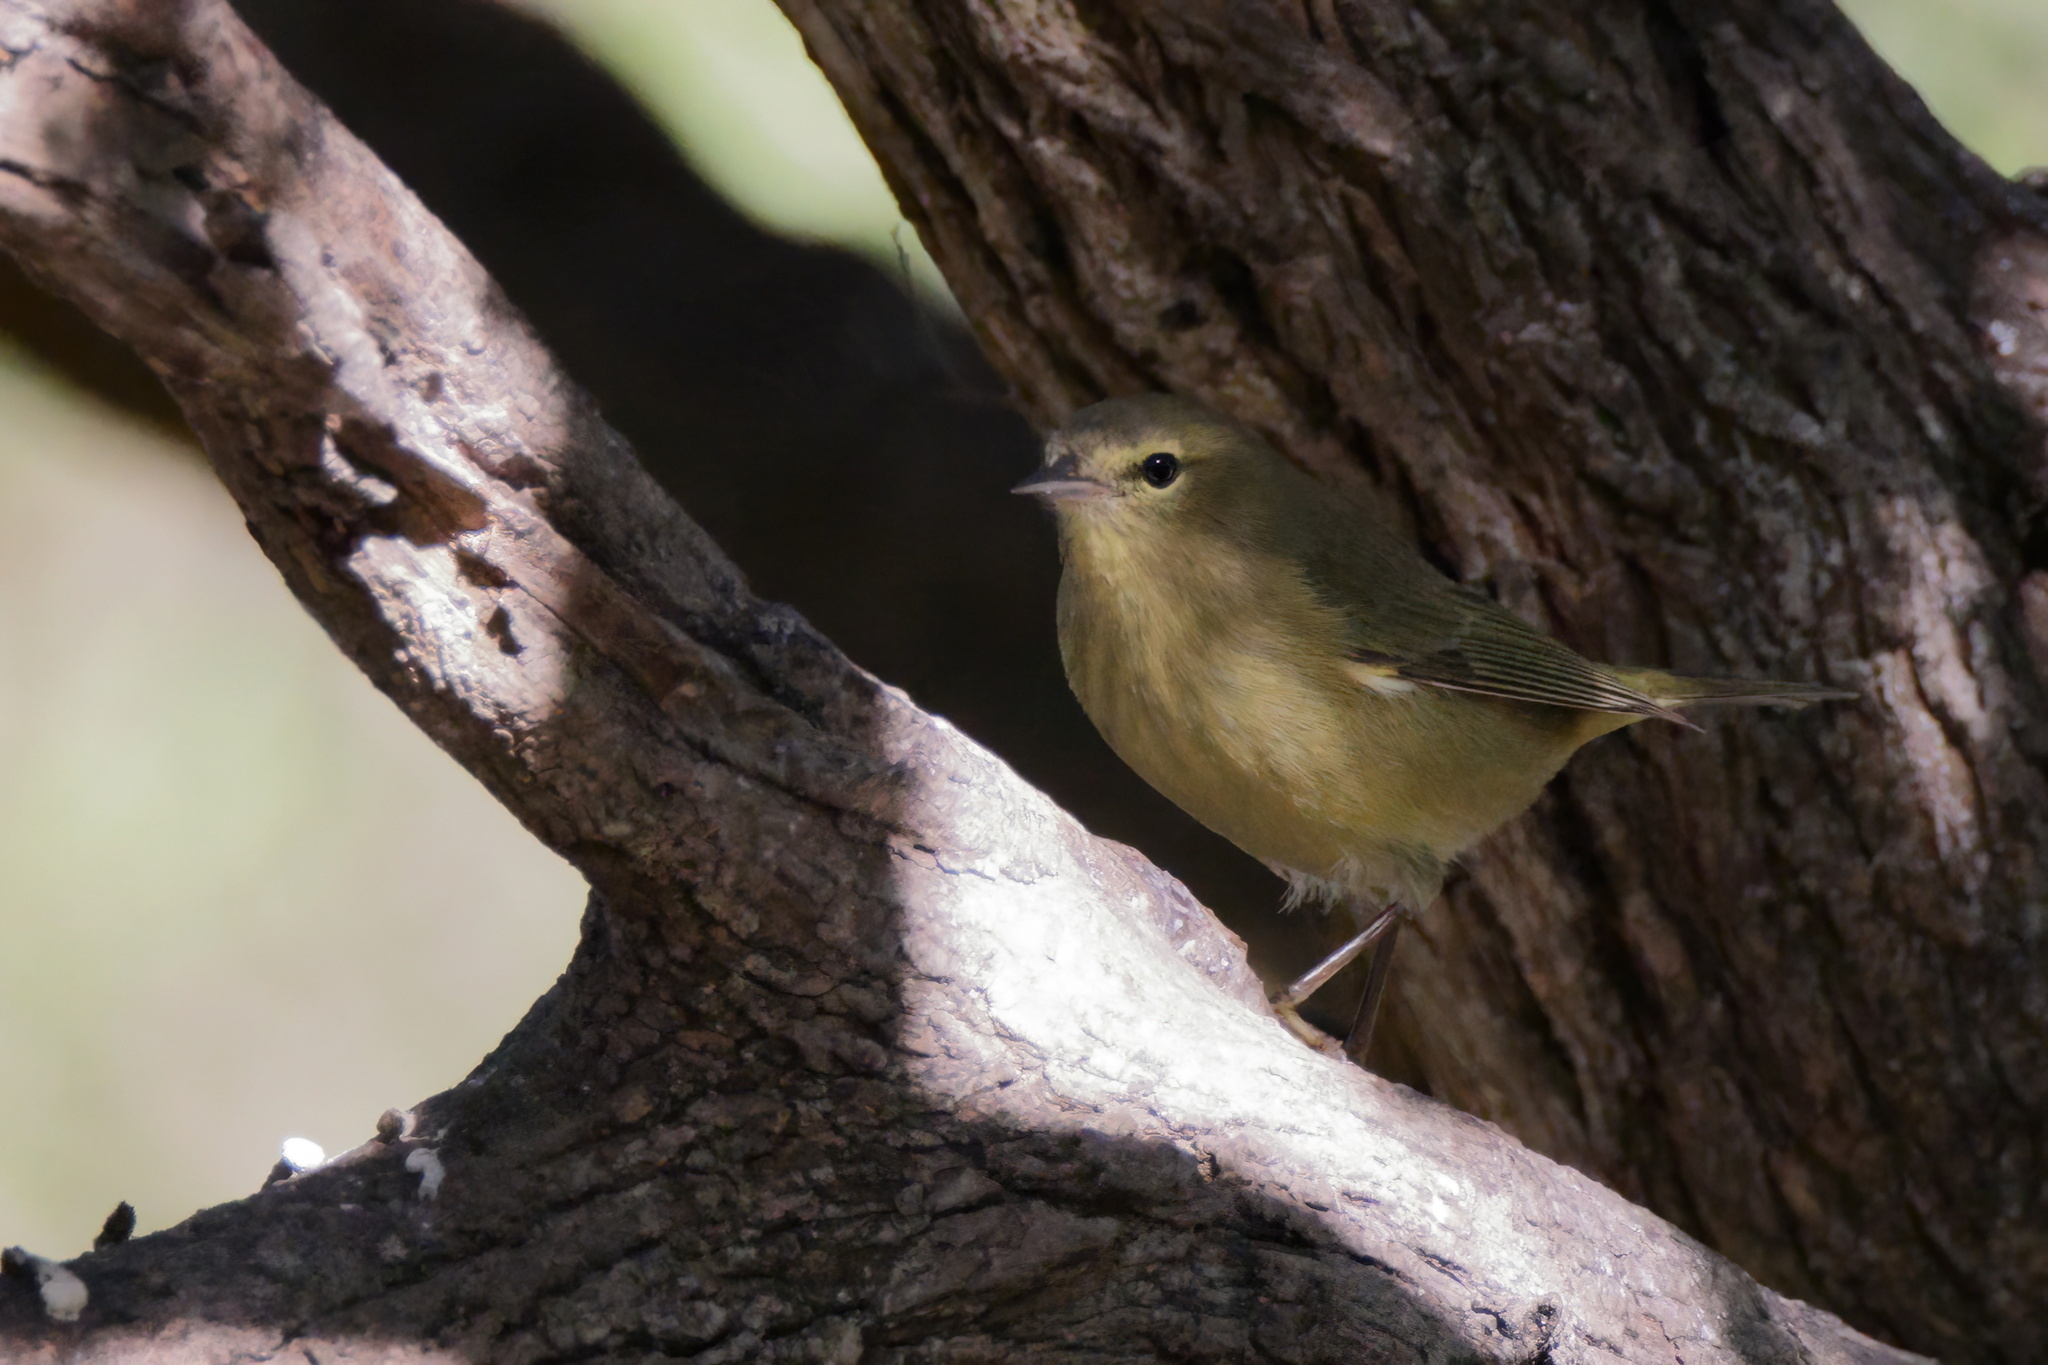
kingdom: Animalia
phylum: Chordata
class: Aves
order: Passeriformes
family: Parulidae
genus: Leiothlypis
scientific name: Leiothlypis celata
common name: Orange-crowned warbler
